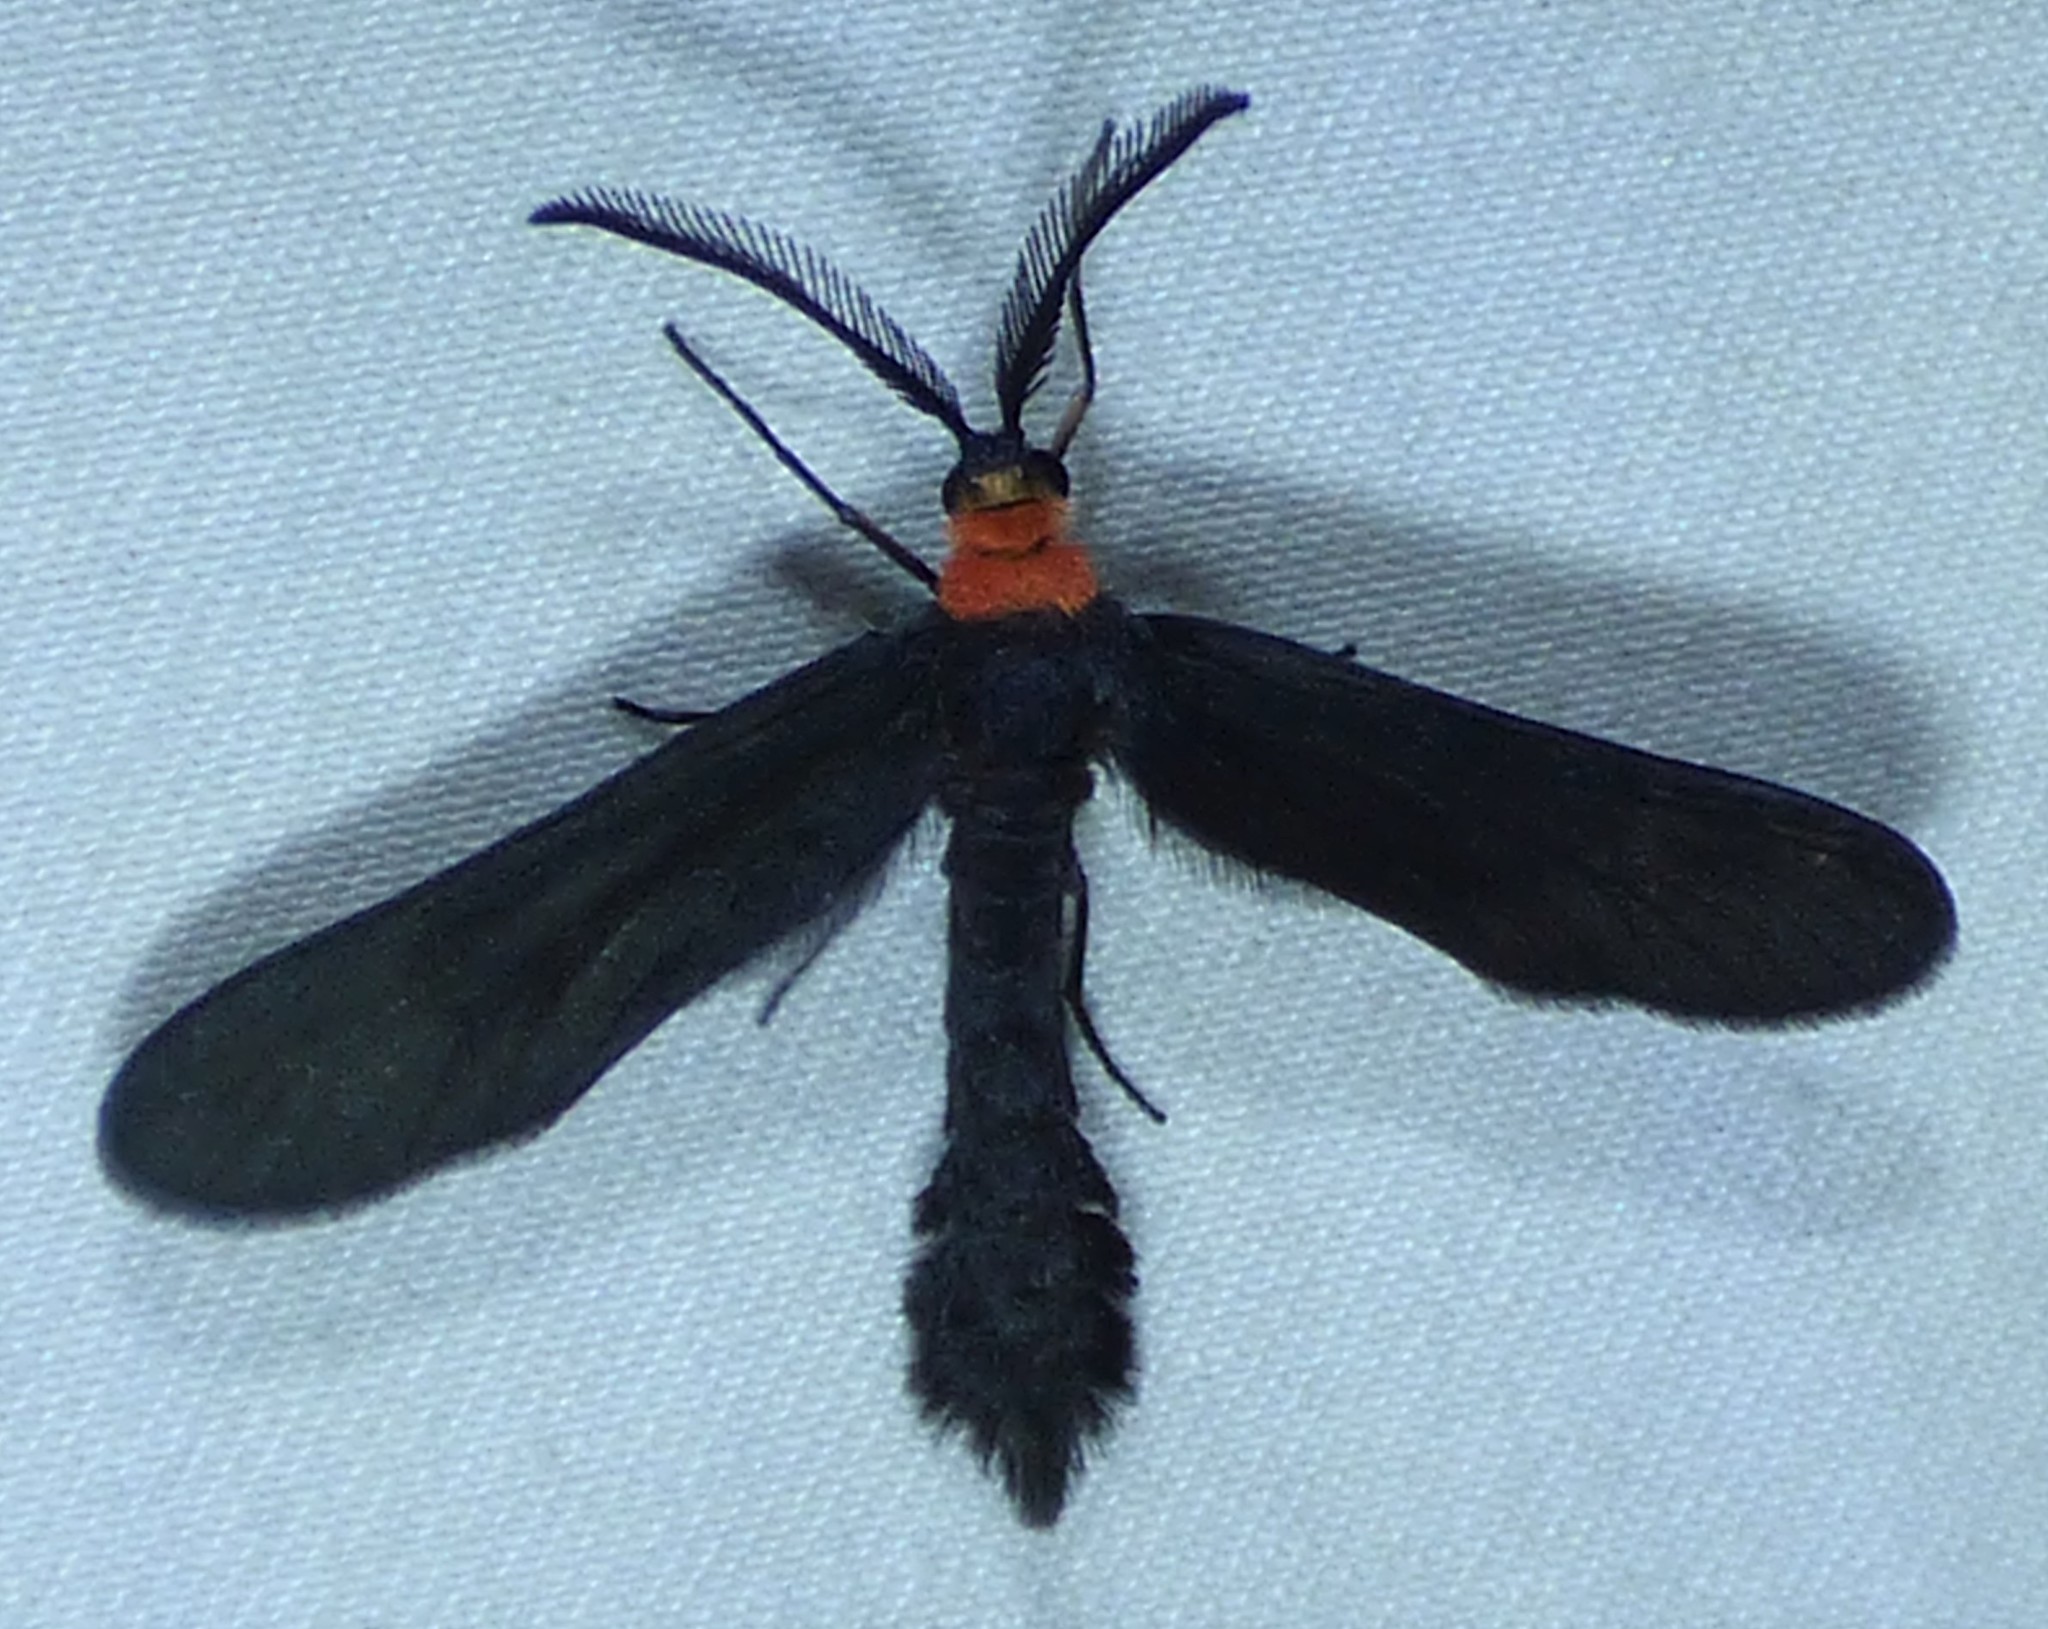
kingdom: Animalia
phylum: Arthropoda
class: Insecta
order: Lepidoptera
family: Zygaenidae
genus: Harrisina
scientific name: Harrisina americana
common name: Grapeleaf skeletonizer moth
